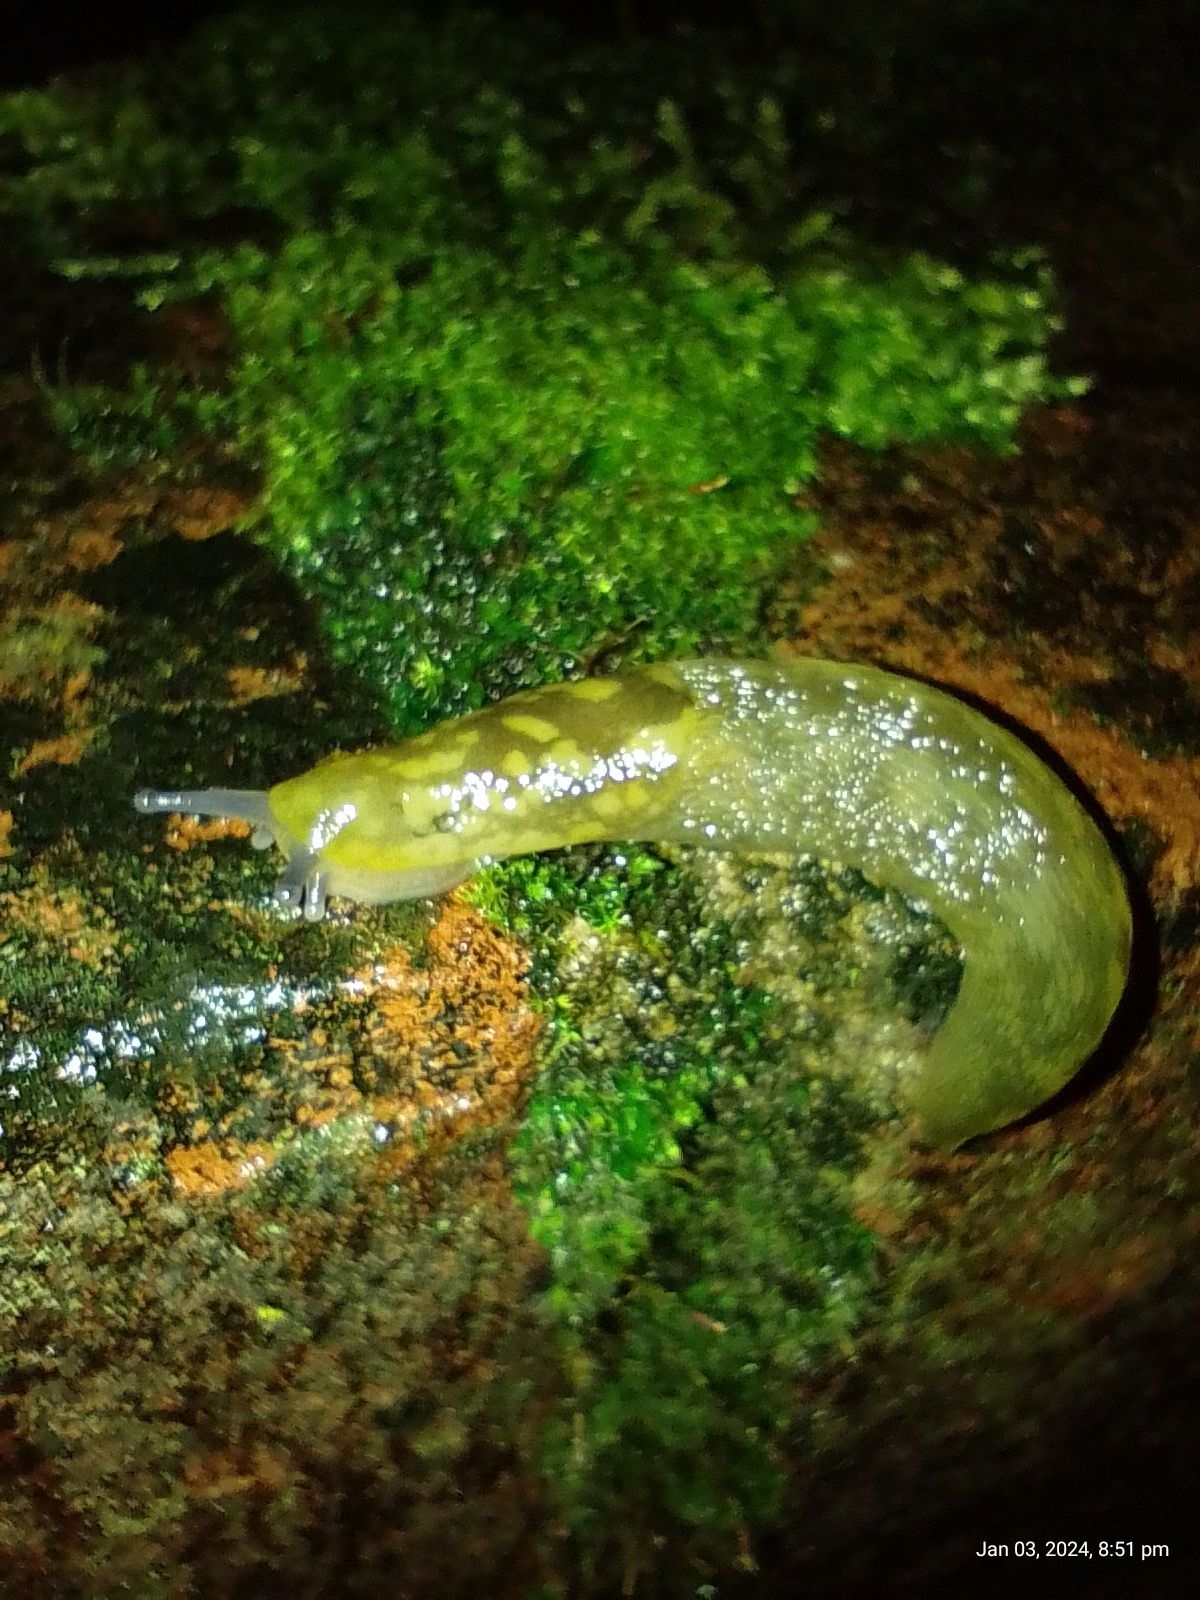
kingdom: Animalia
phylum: Mollusca
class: Gastropoda
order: Stylommatophora
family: Limacidae
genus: Limacus
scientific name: Limacus maculatus
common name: Irish yellow slug
